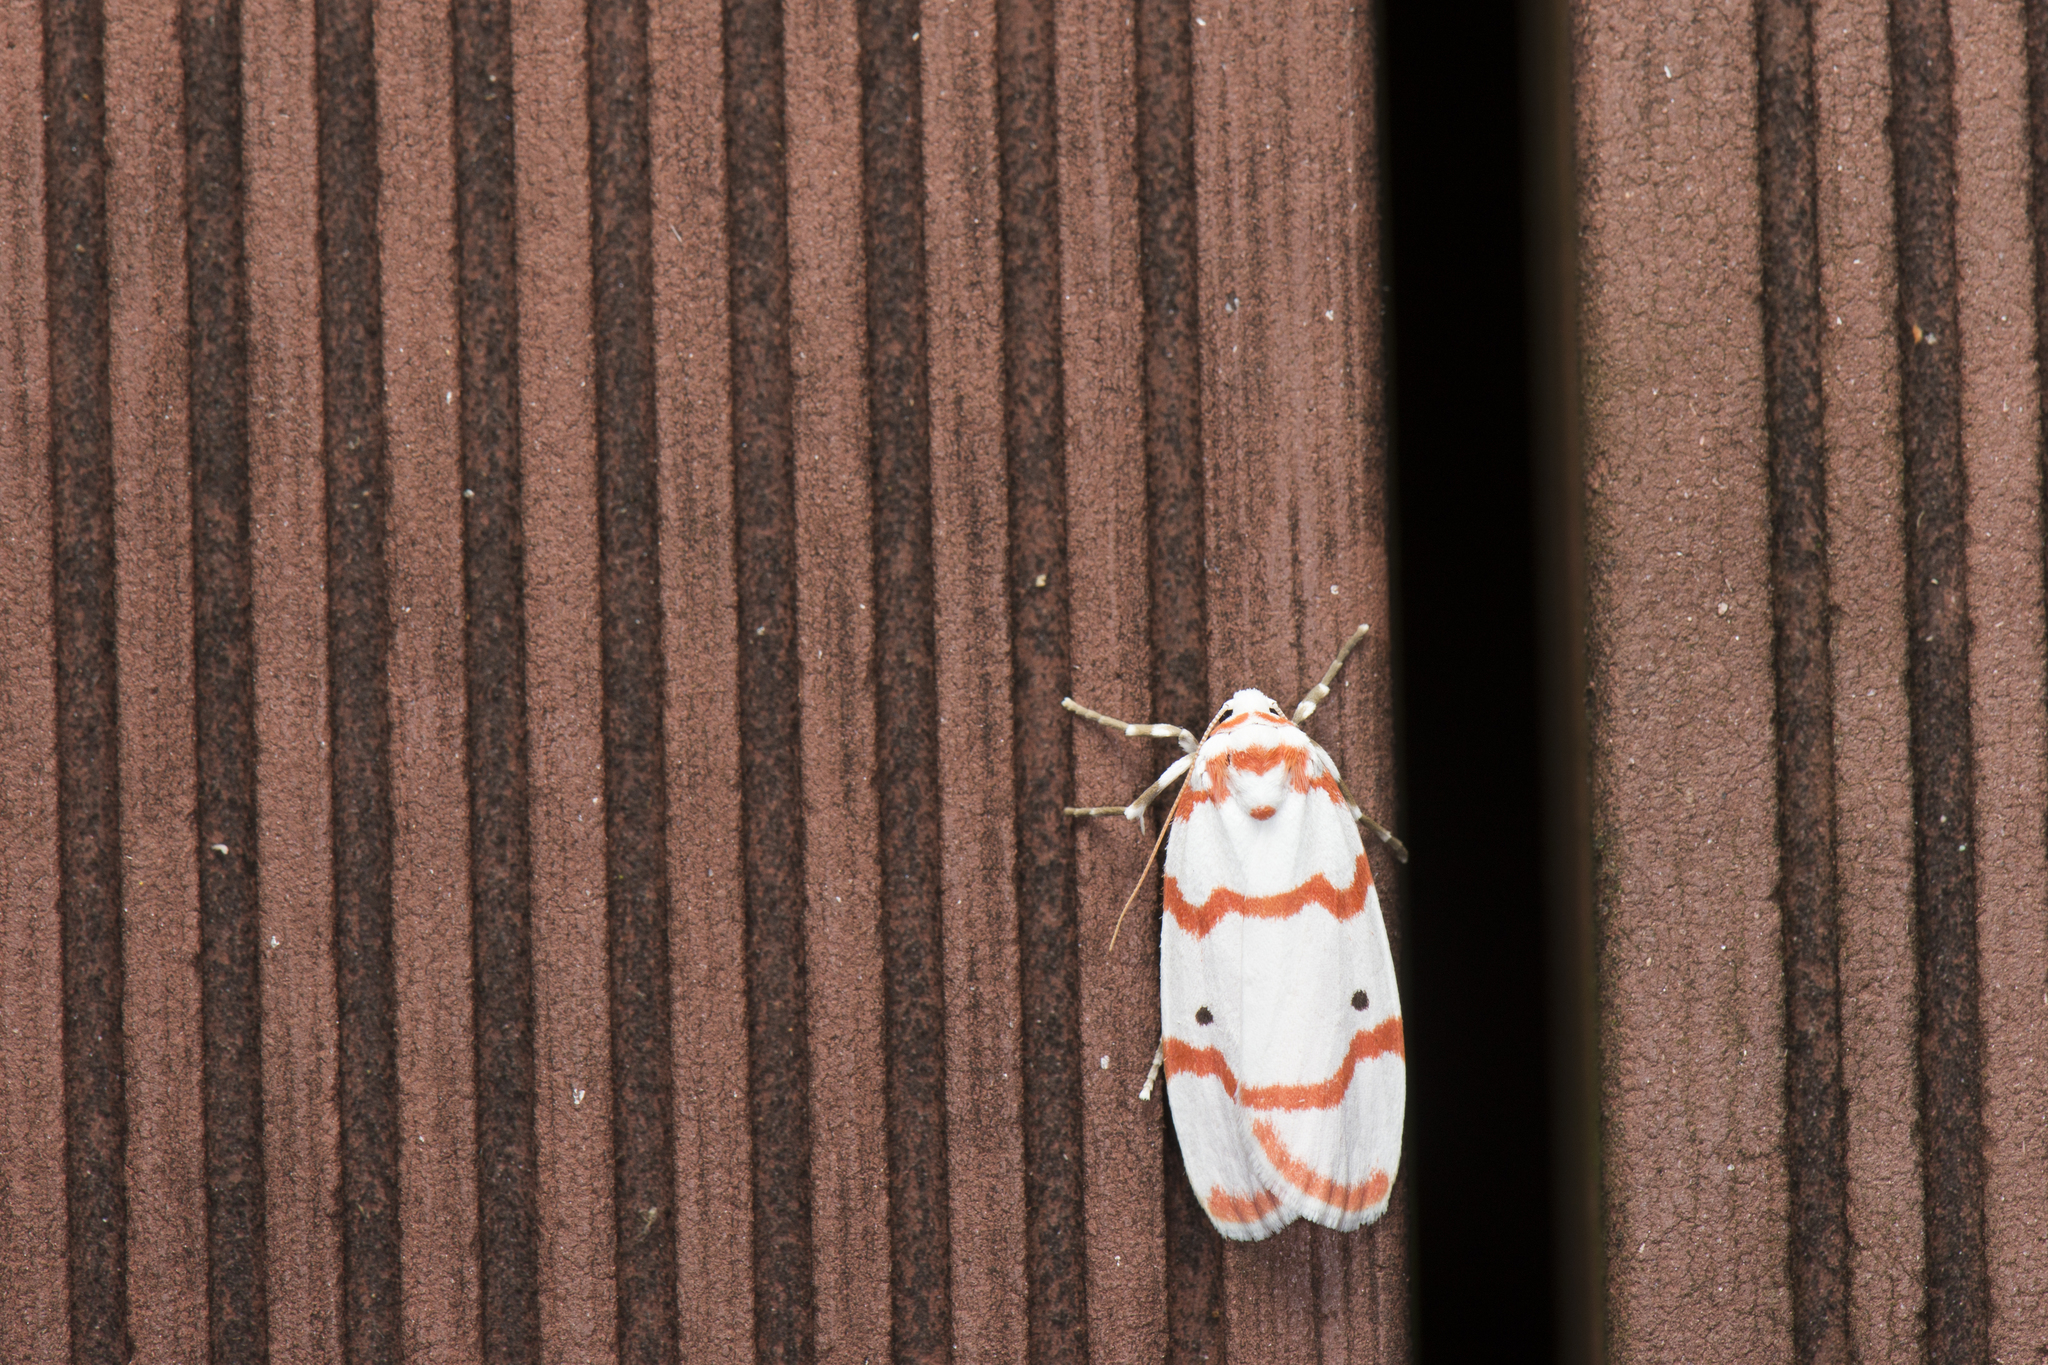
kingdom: Animalia
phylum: Arthropoda
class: Insecta
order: Lepidoptera
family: Erebidae
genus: Cyana
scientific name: Cyana hamata
